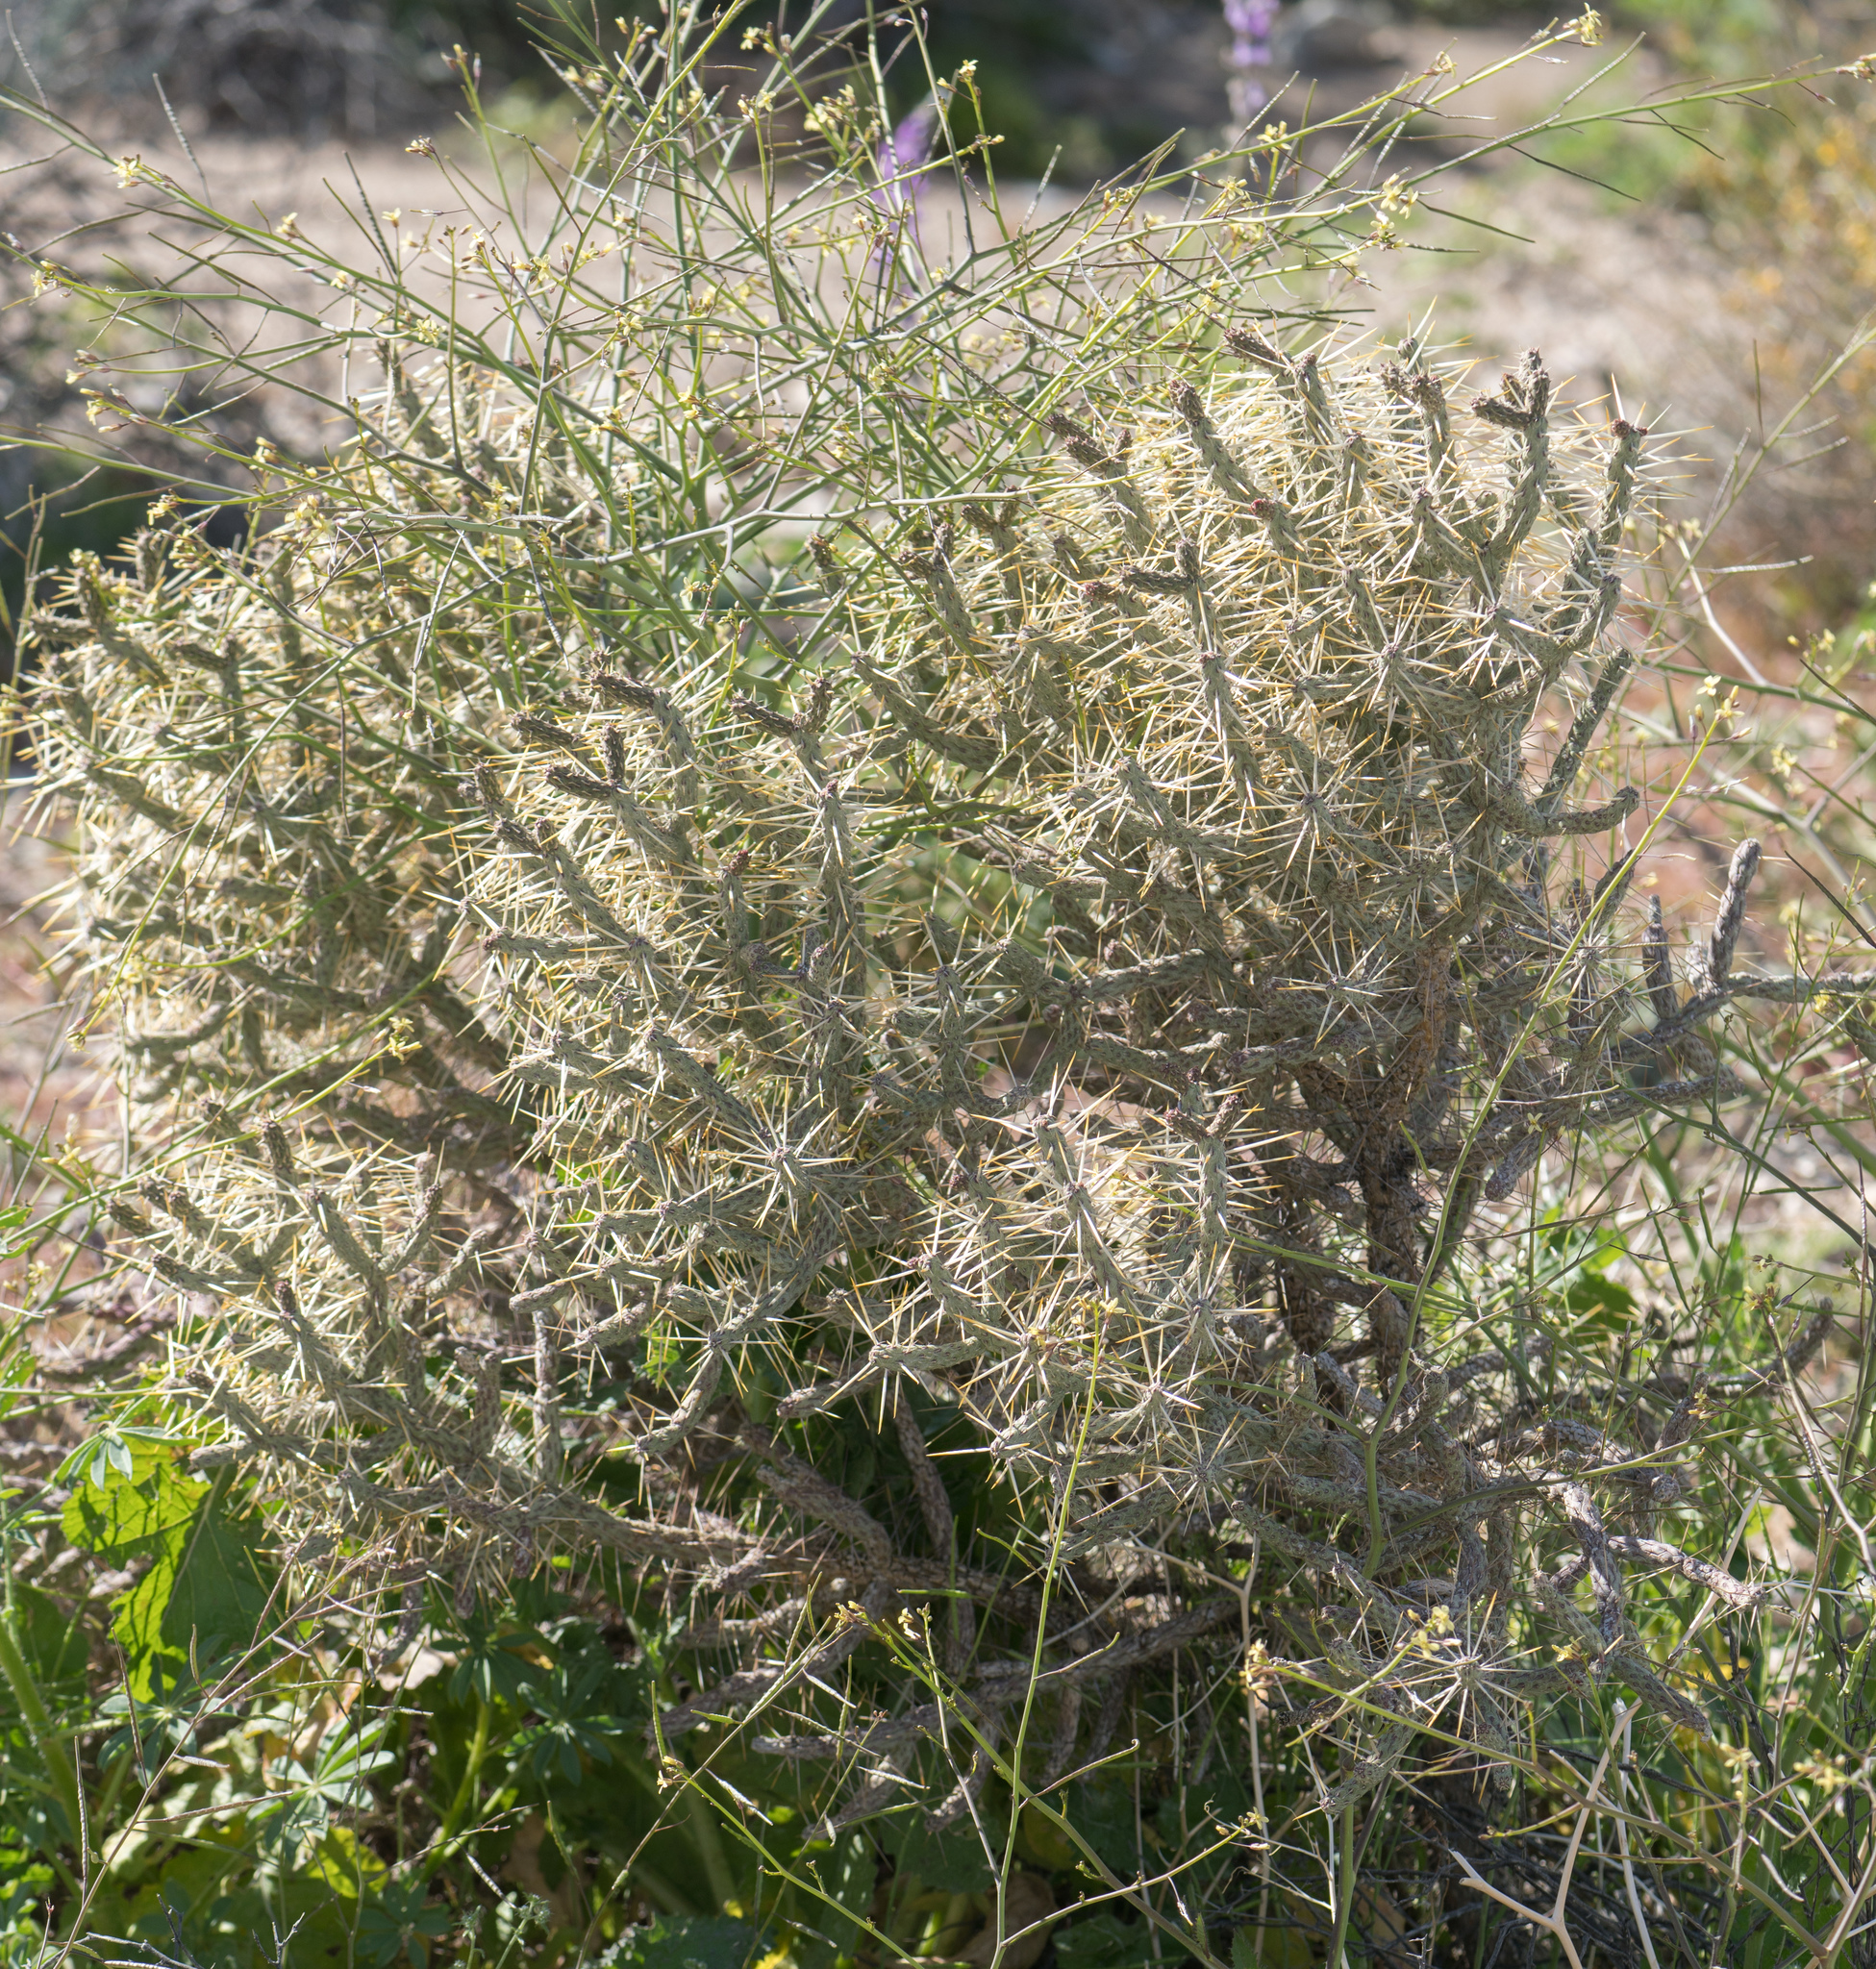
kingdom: Plantae
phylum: Tracheophyta
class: Magnoliopsida
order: Caryophyllales
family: Cactaceae
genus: Cylindropuntia
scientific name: Cylindropuntia ramosissima
